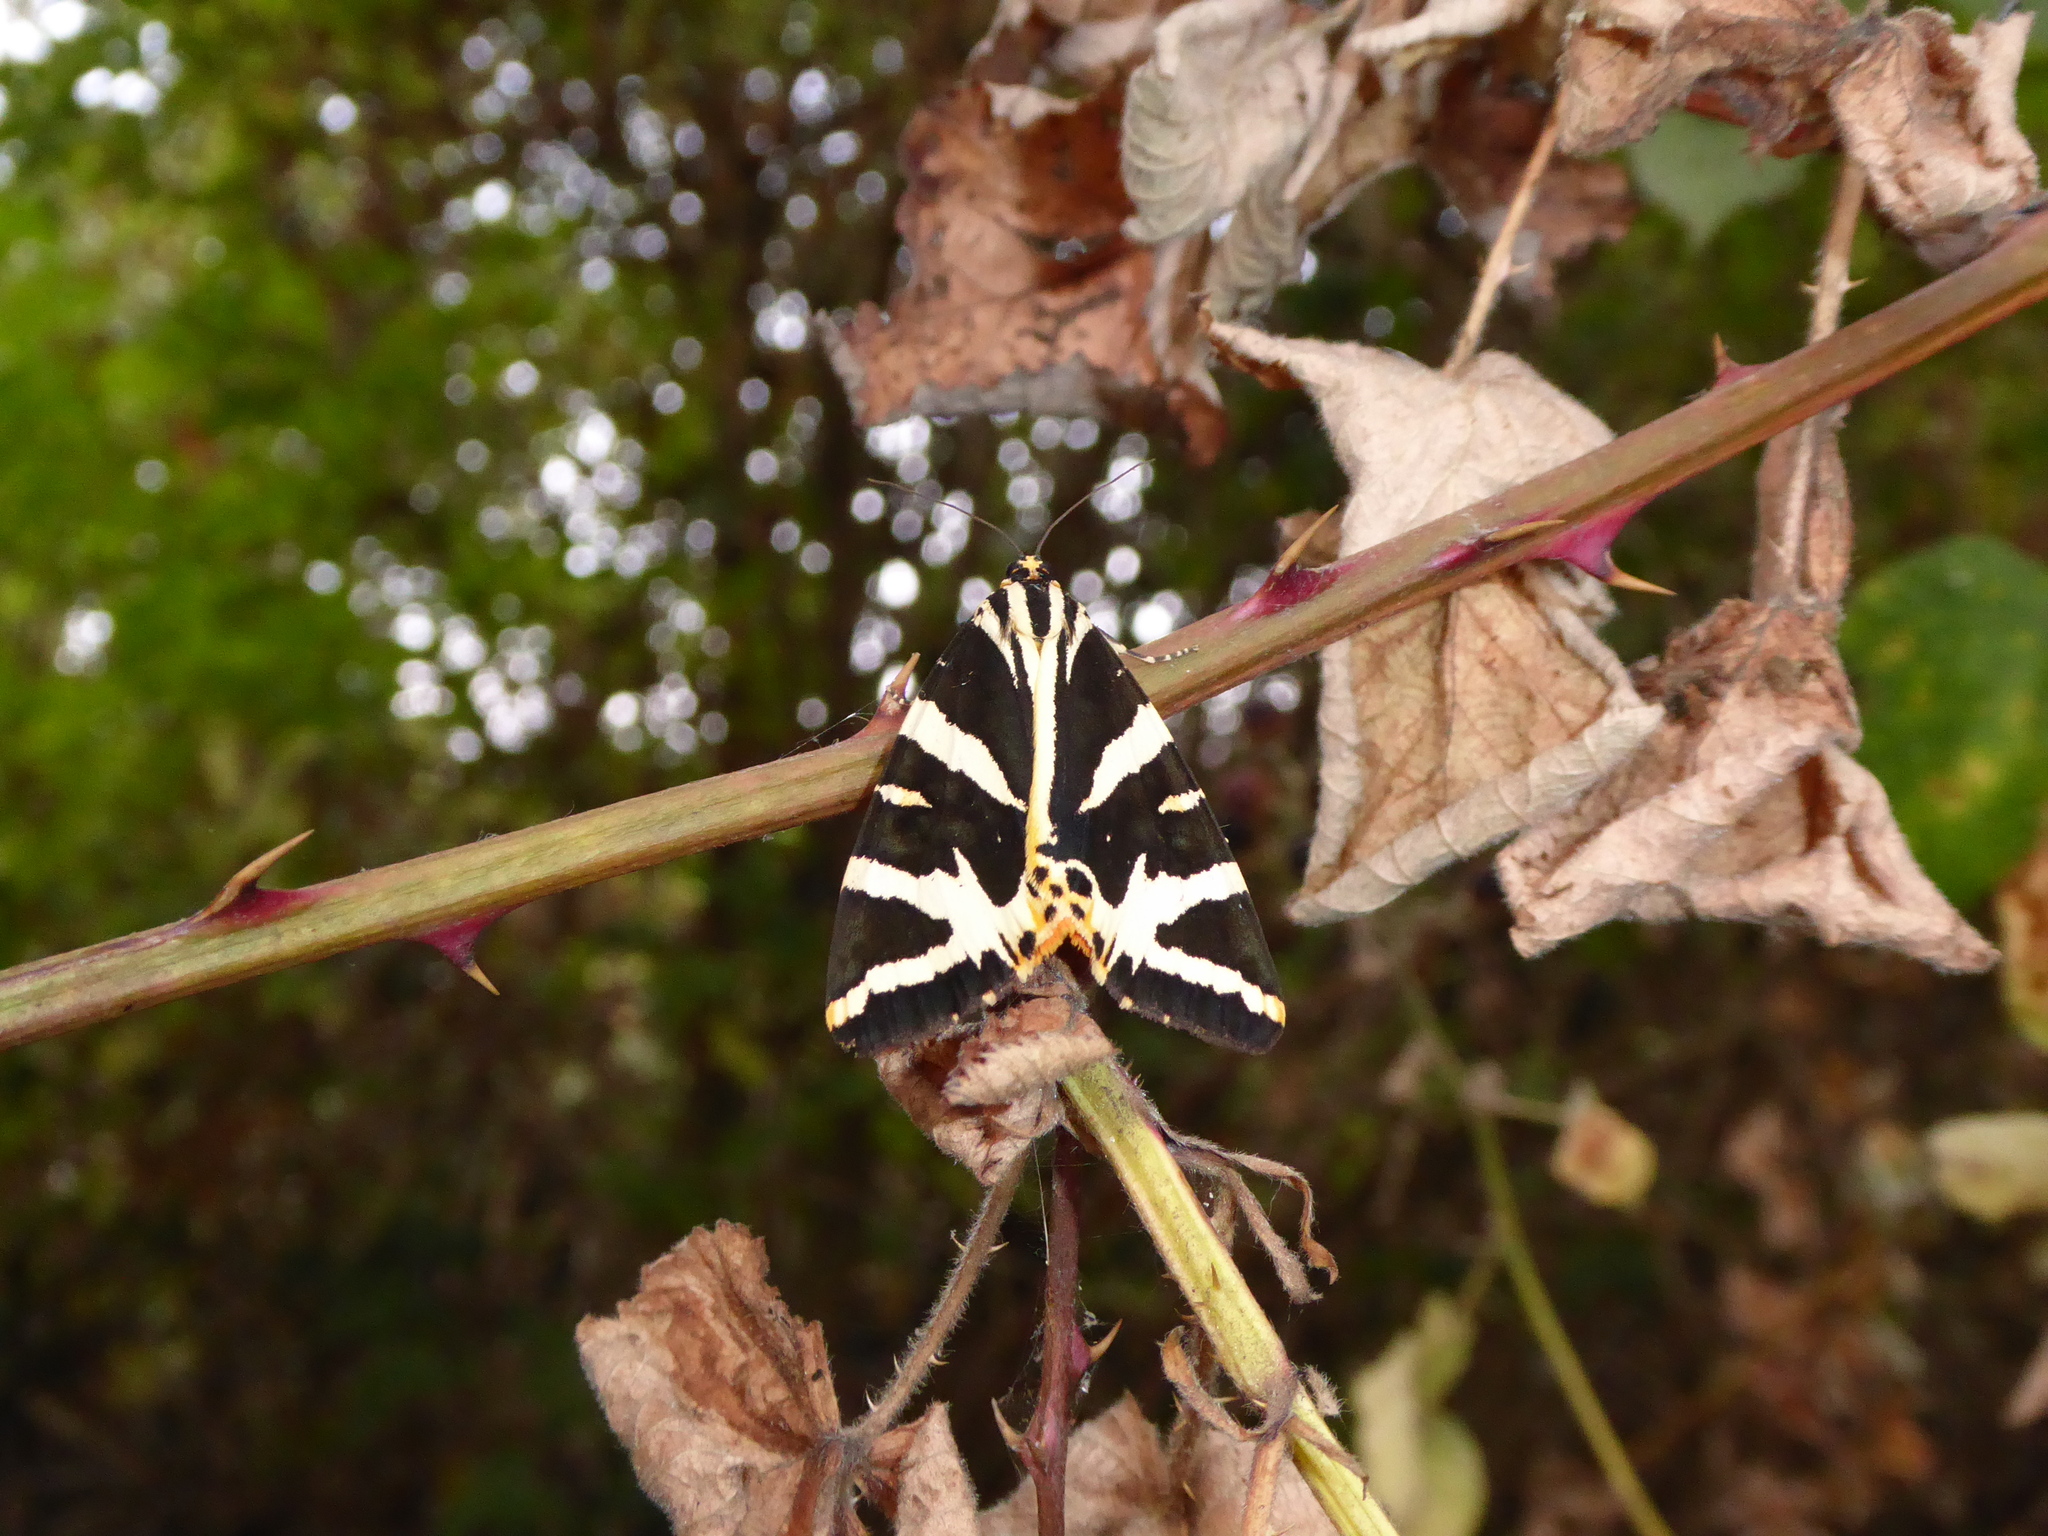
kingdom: Animalia
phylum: Arthropoda
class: Insecta
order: Lepidoptera
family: Erebidae
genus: Euplagia
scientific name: Euplagia quadripunctaria
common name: Jersey tiger
